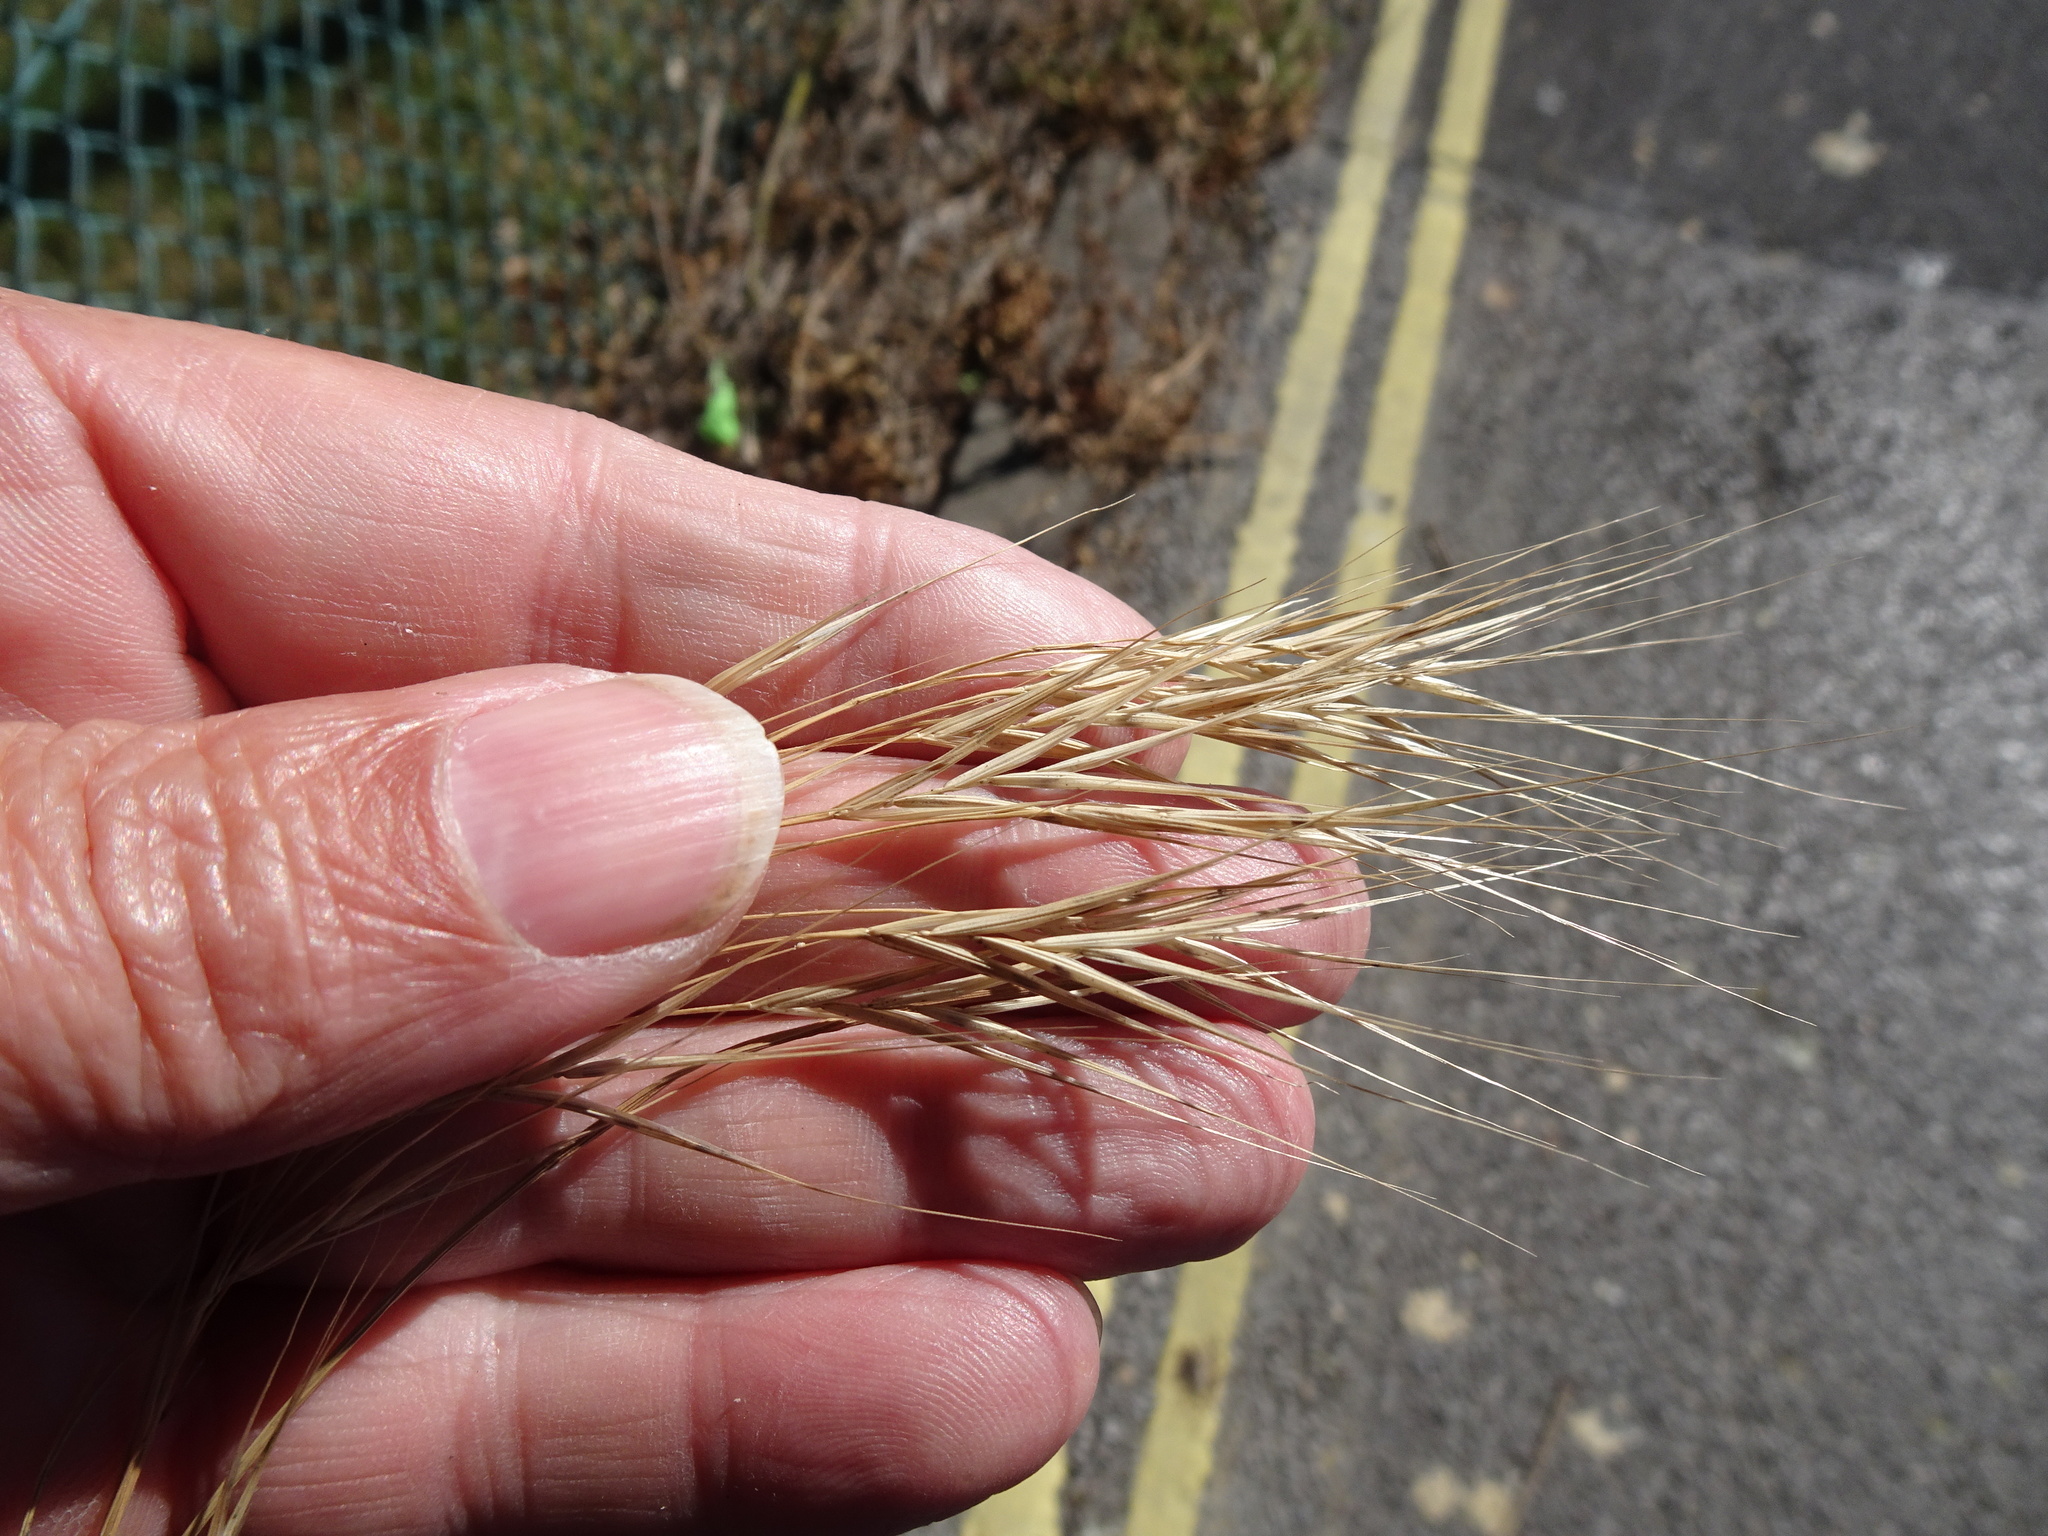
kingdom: Plantae
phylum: Tracheophyta
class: Liliopsida
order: Poales
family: Poaceae
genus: Bromus
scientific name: Bromus sterilis
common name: Poverty brome
